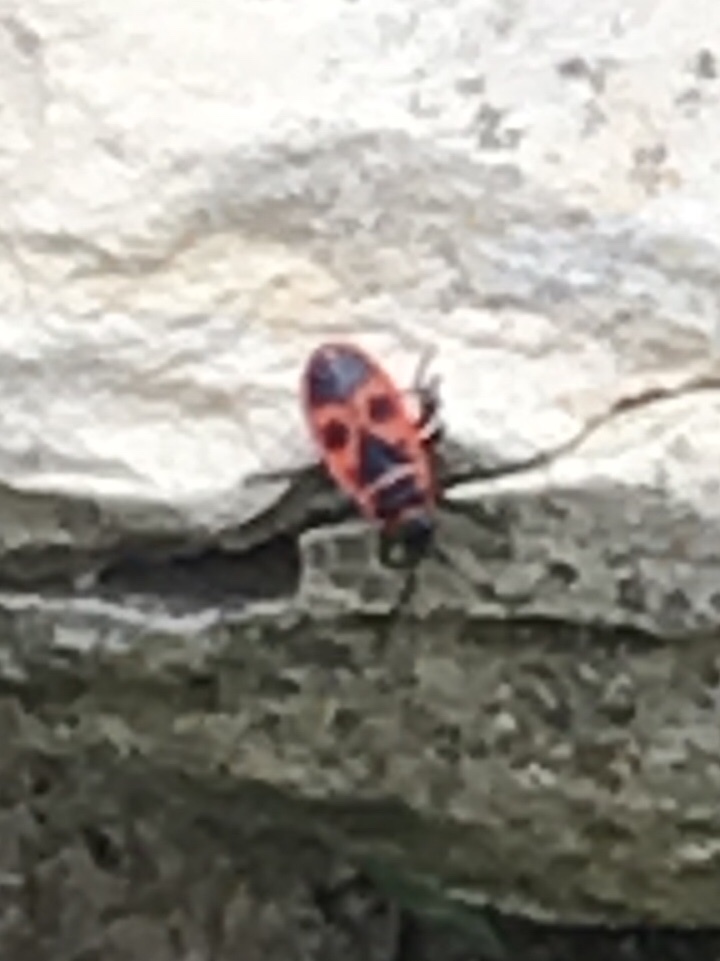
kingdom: Animalia
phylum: Arthropoda
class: Insecta
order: Hemiptera
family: Pyrrhocoridae
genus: Pyrrhocoris
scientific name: Pyrrhocoris apterus
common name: Firebug
